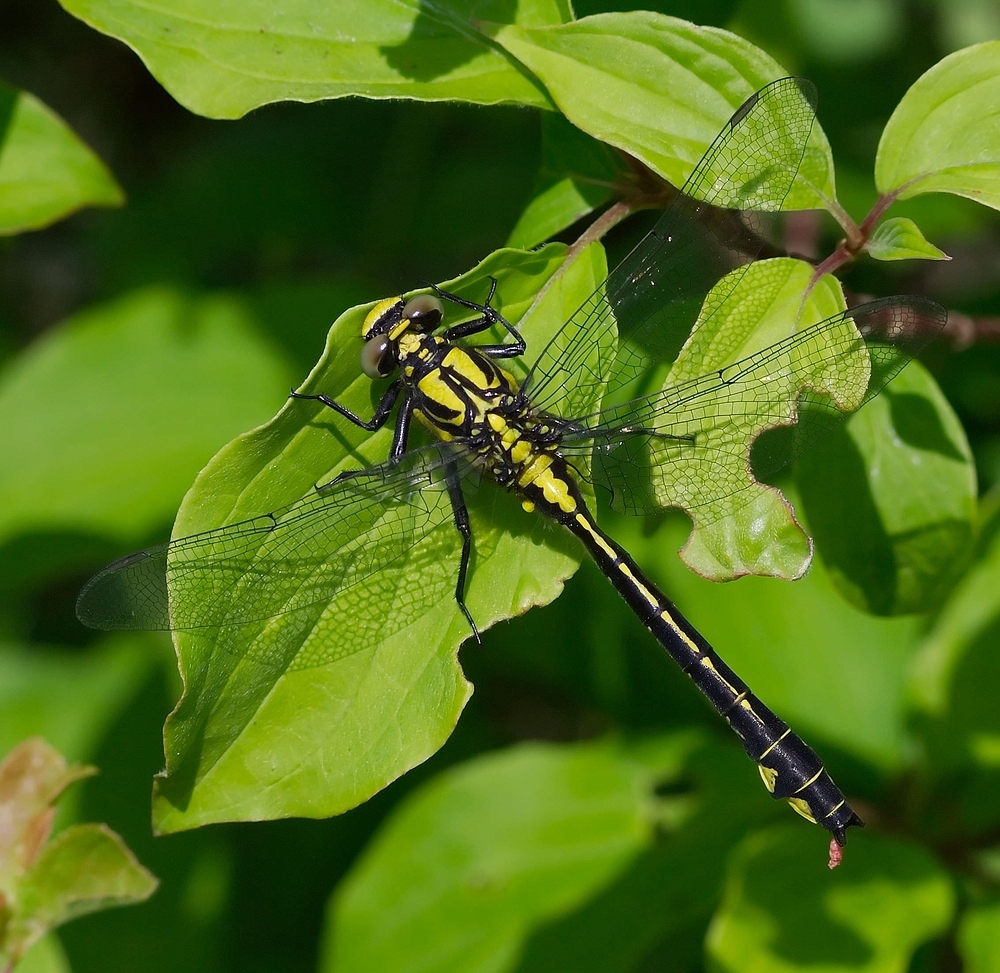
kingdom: Animalia
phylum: Arthropoda
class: Insecta
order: Odonata
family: Gomphidae
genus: Gomphus
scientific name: Gomphus vulgatissimus
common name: Club-tailed dragonfly
